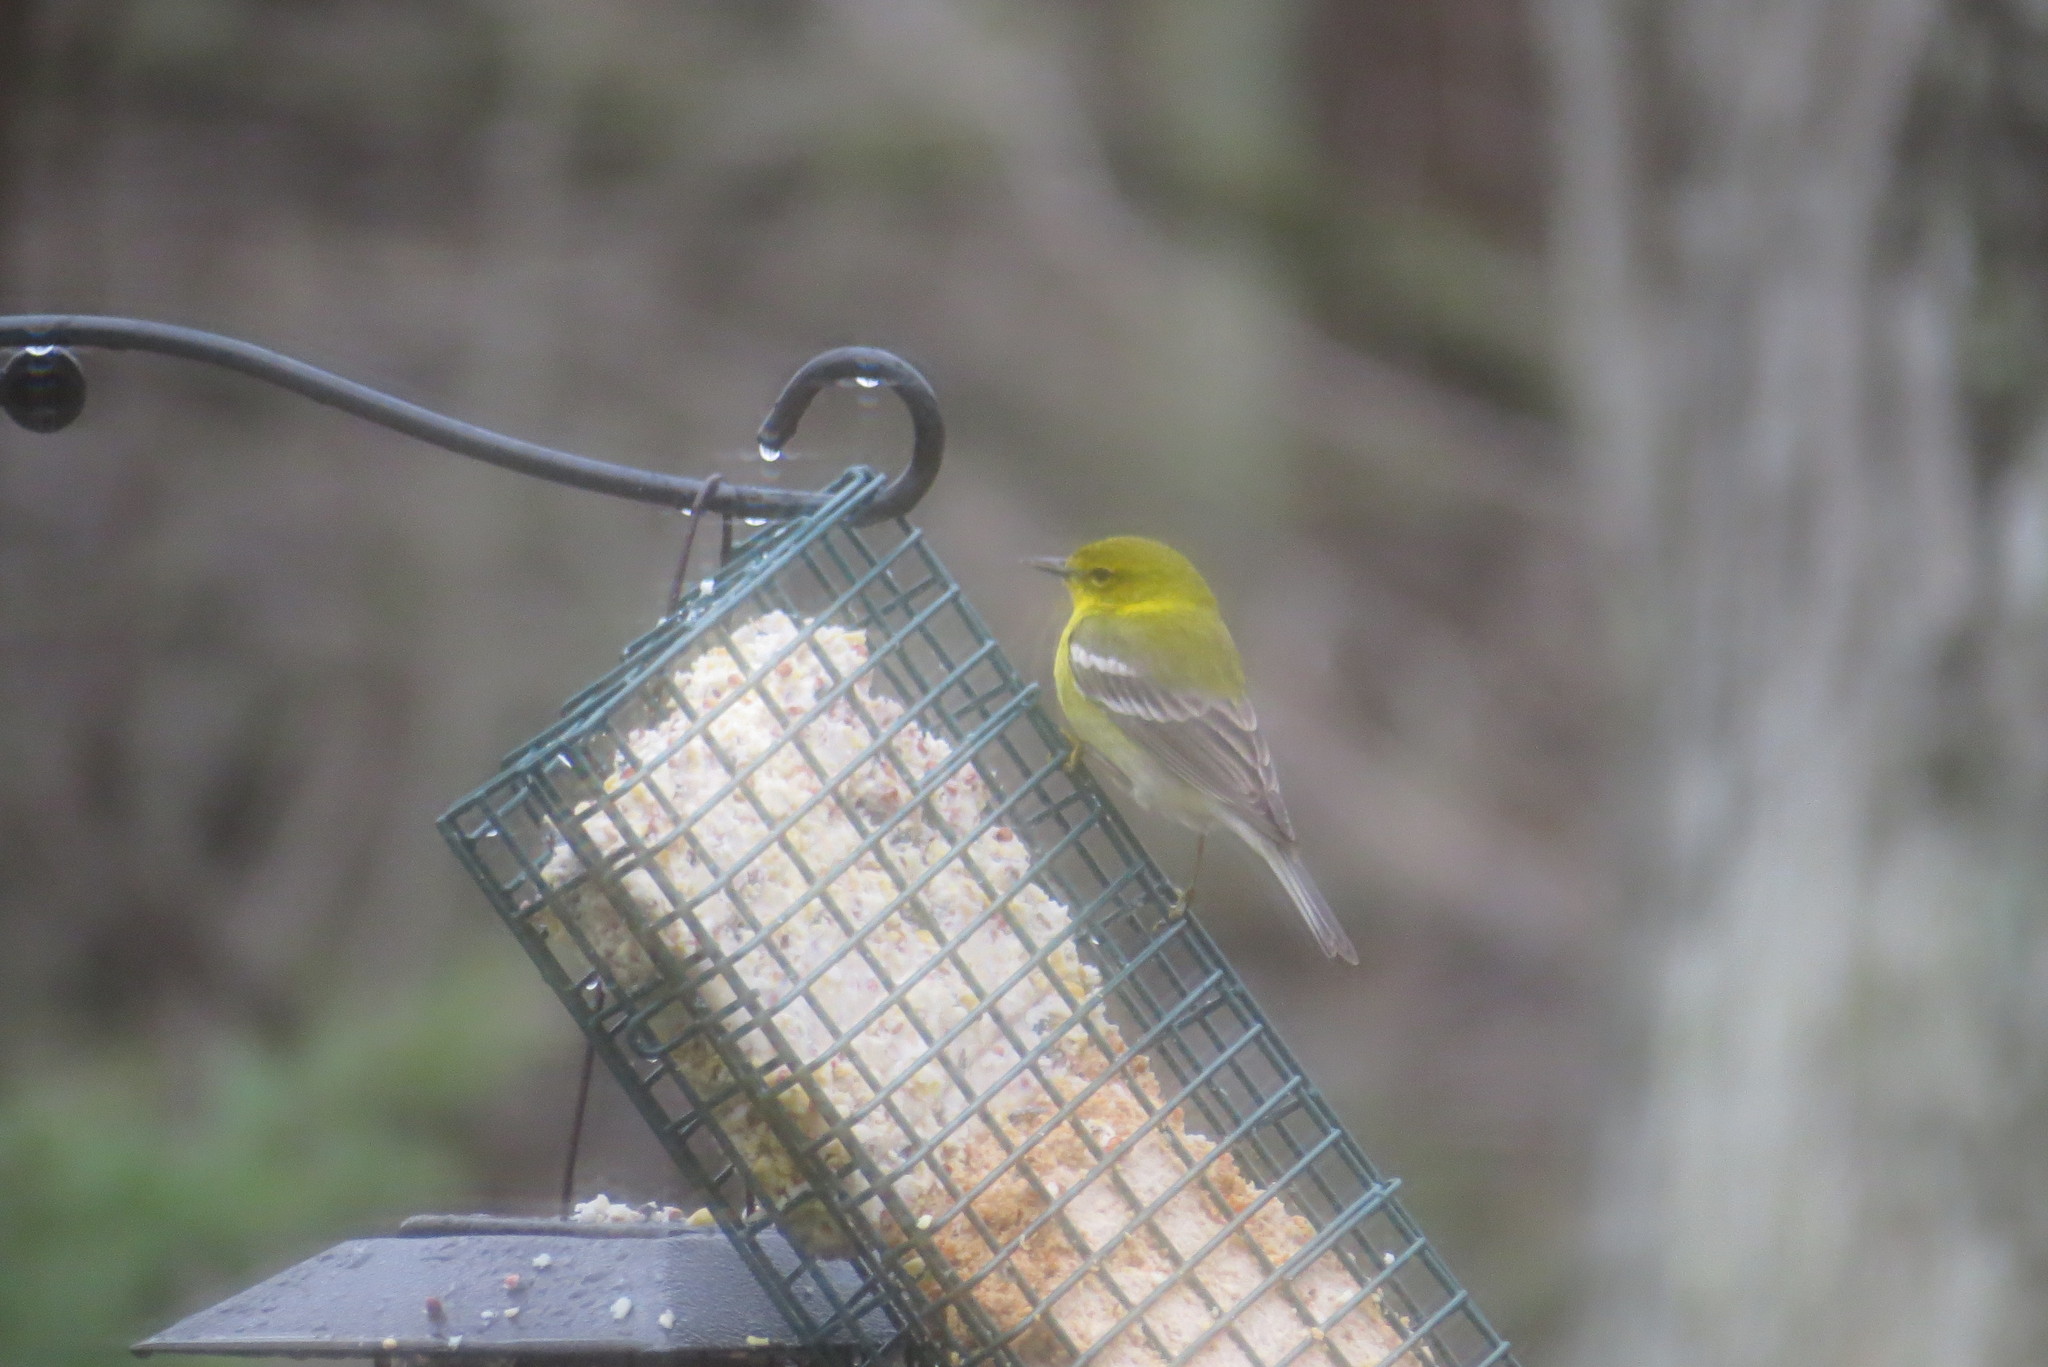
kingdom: Animalia
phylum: Chordata
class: Aves
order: Passeriformes
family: Parulidae
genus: Setophaga
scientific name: Setophaga pinus
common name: Pine warbler
